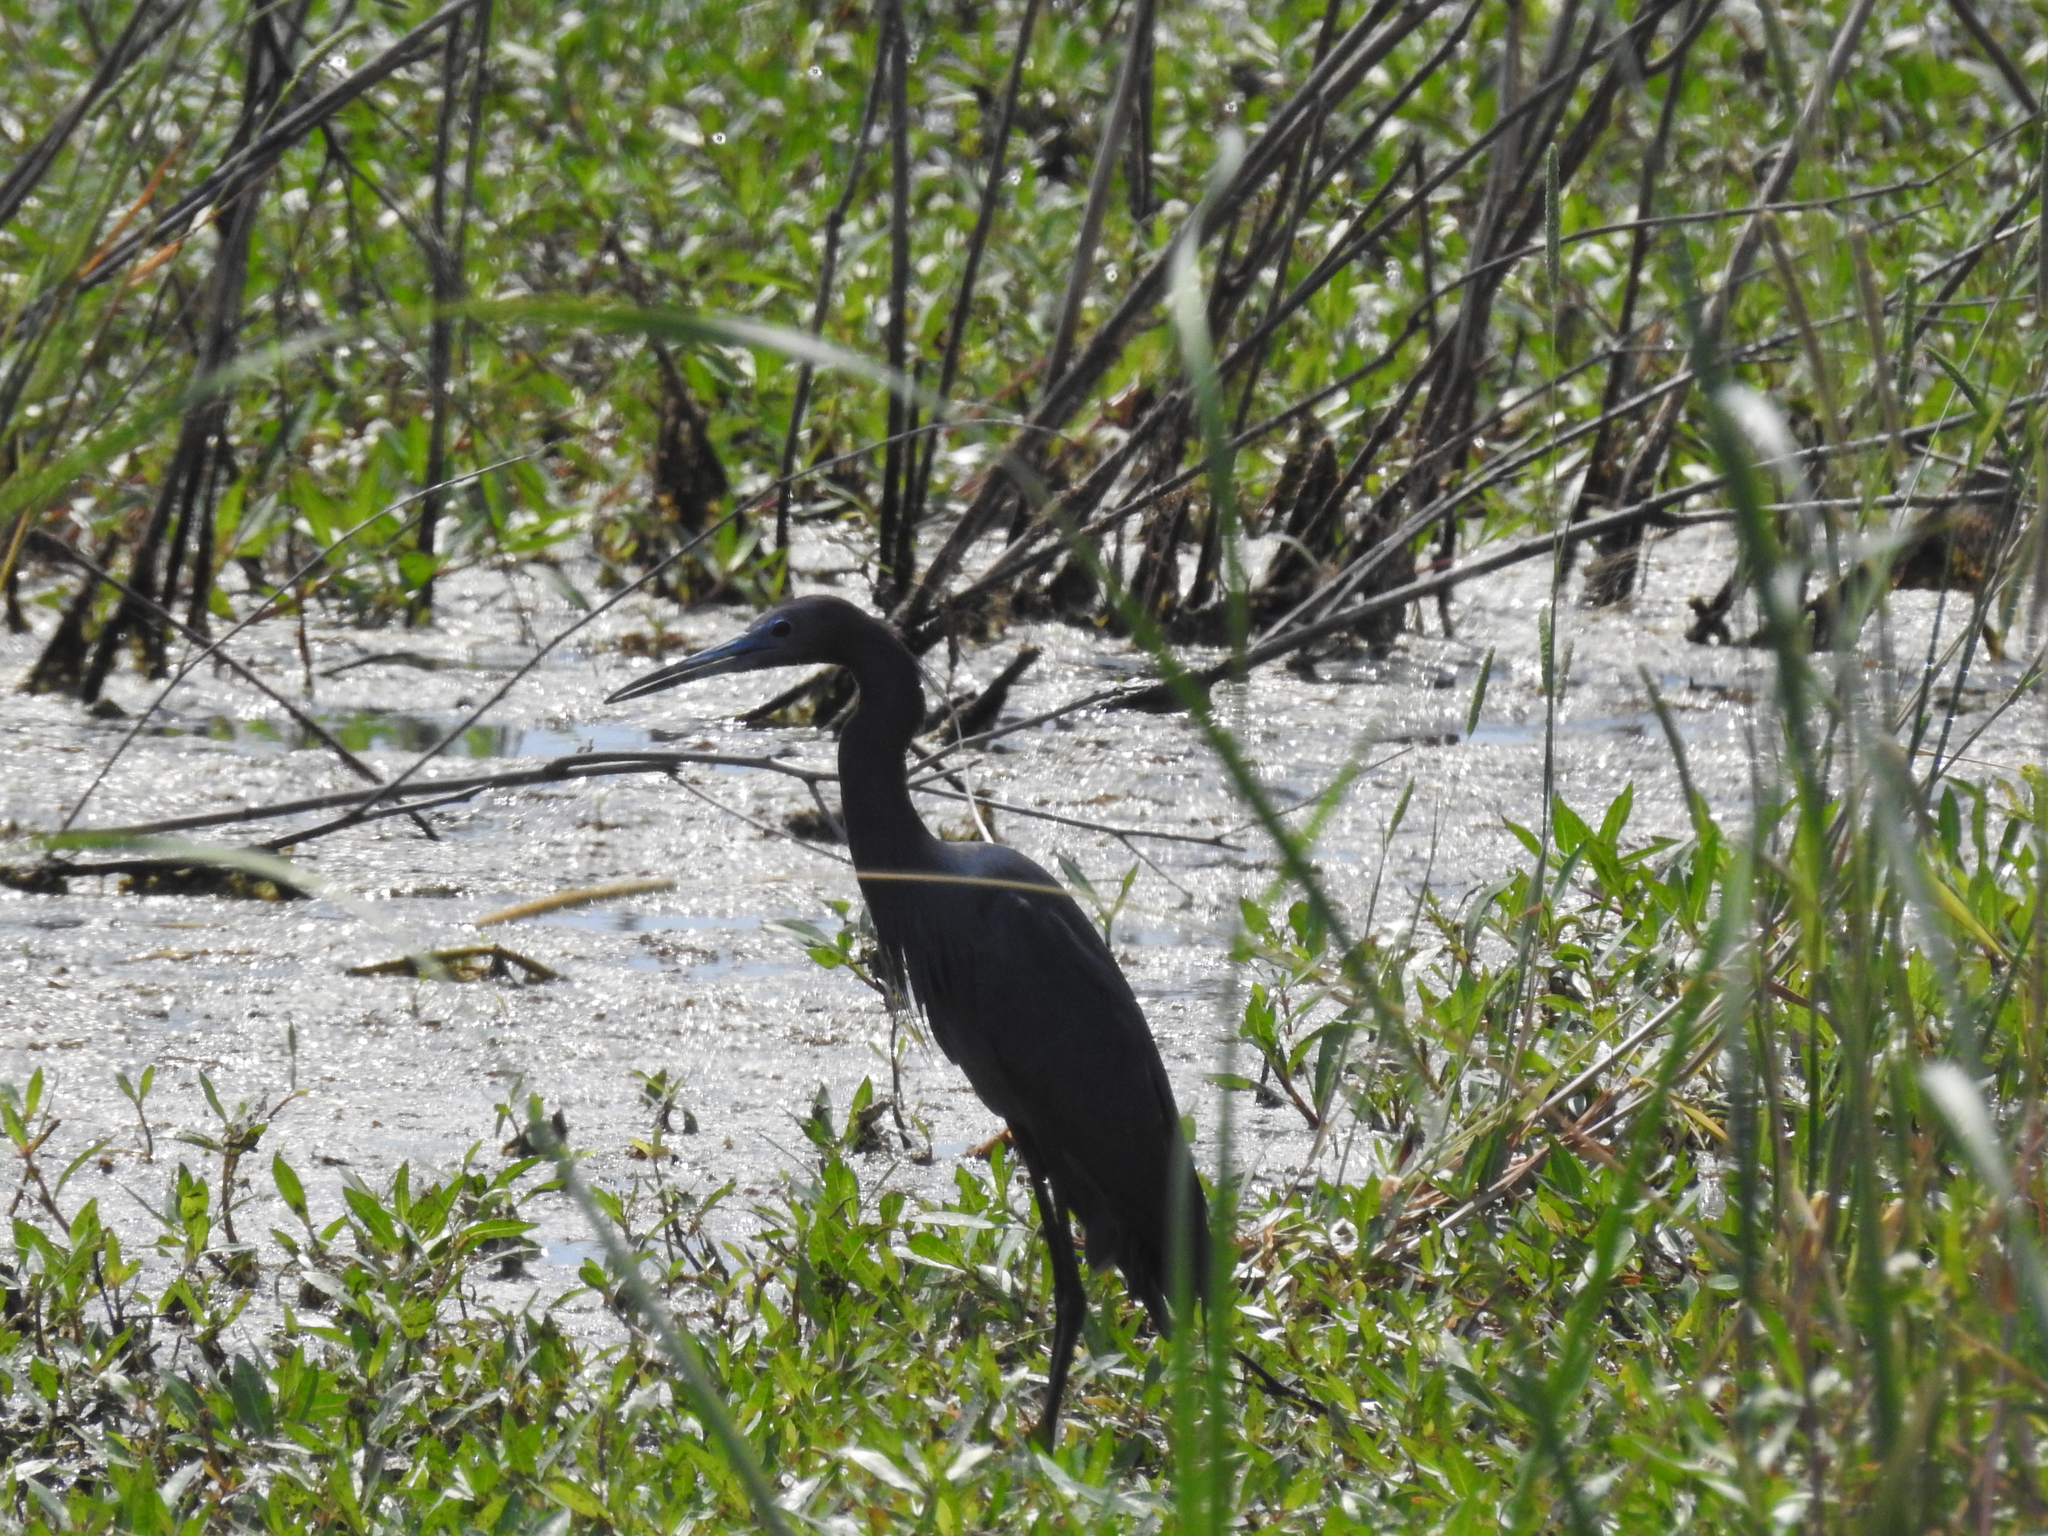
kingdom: Animalia
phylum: Chordata
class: Aves
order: Pelecaniformes
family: Ardeidae
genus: Egretta
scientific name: Egretta caerulea
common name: Little blue heron
